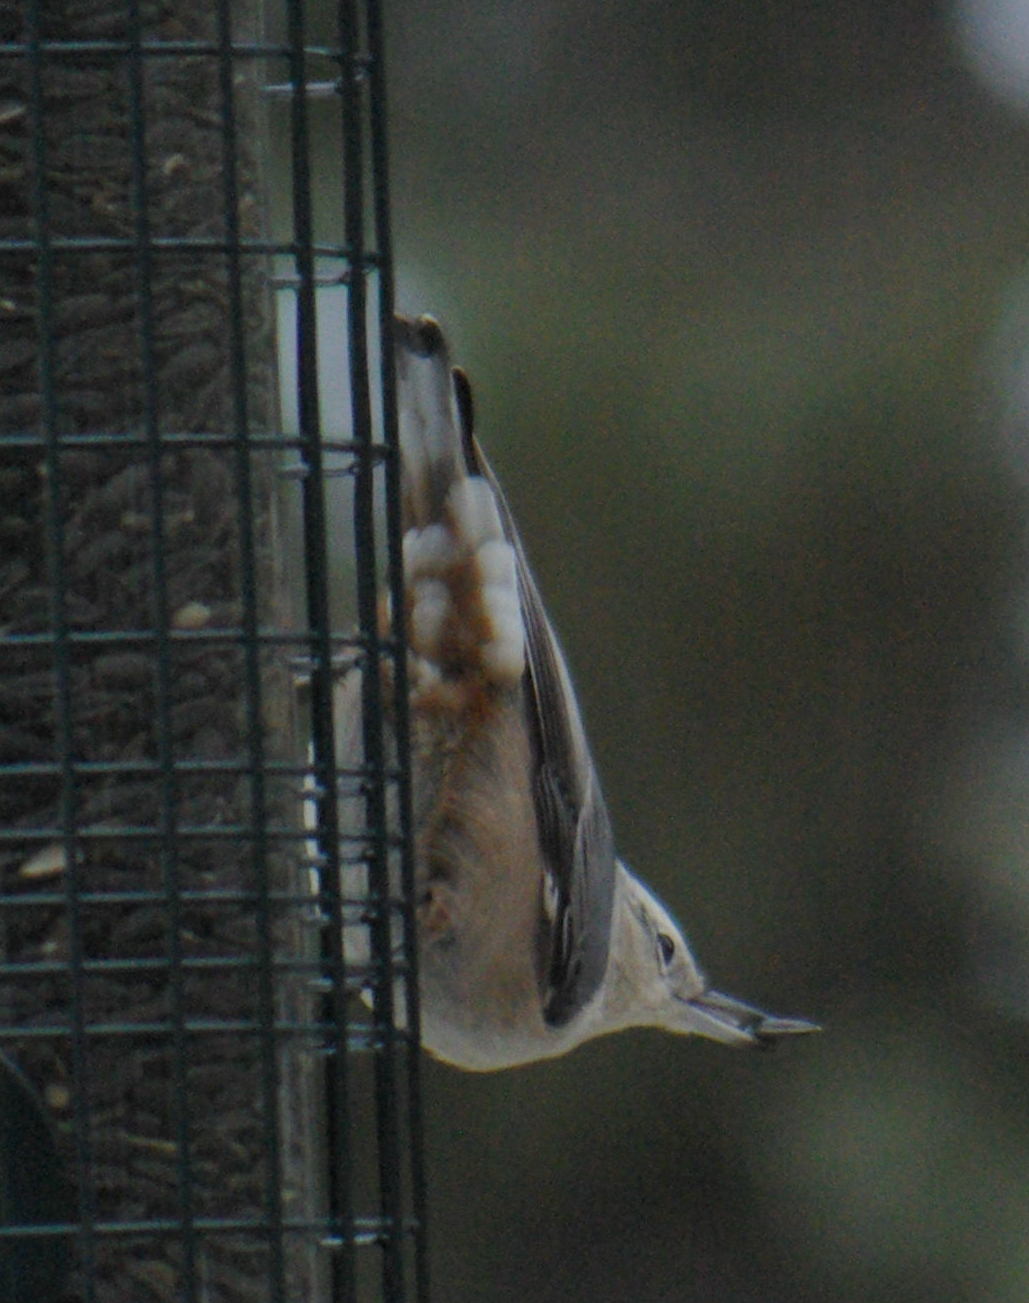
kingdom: Animalia
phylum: Chordata
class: Aves
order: Passeriformes
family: Sittidae
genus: Sitta
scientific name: Sitta carolinensis
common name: White-breasted nuthatch
